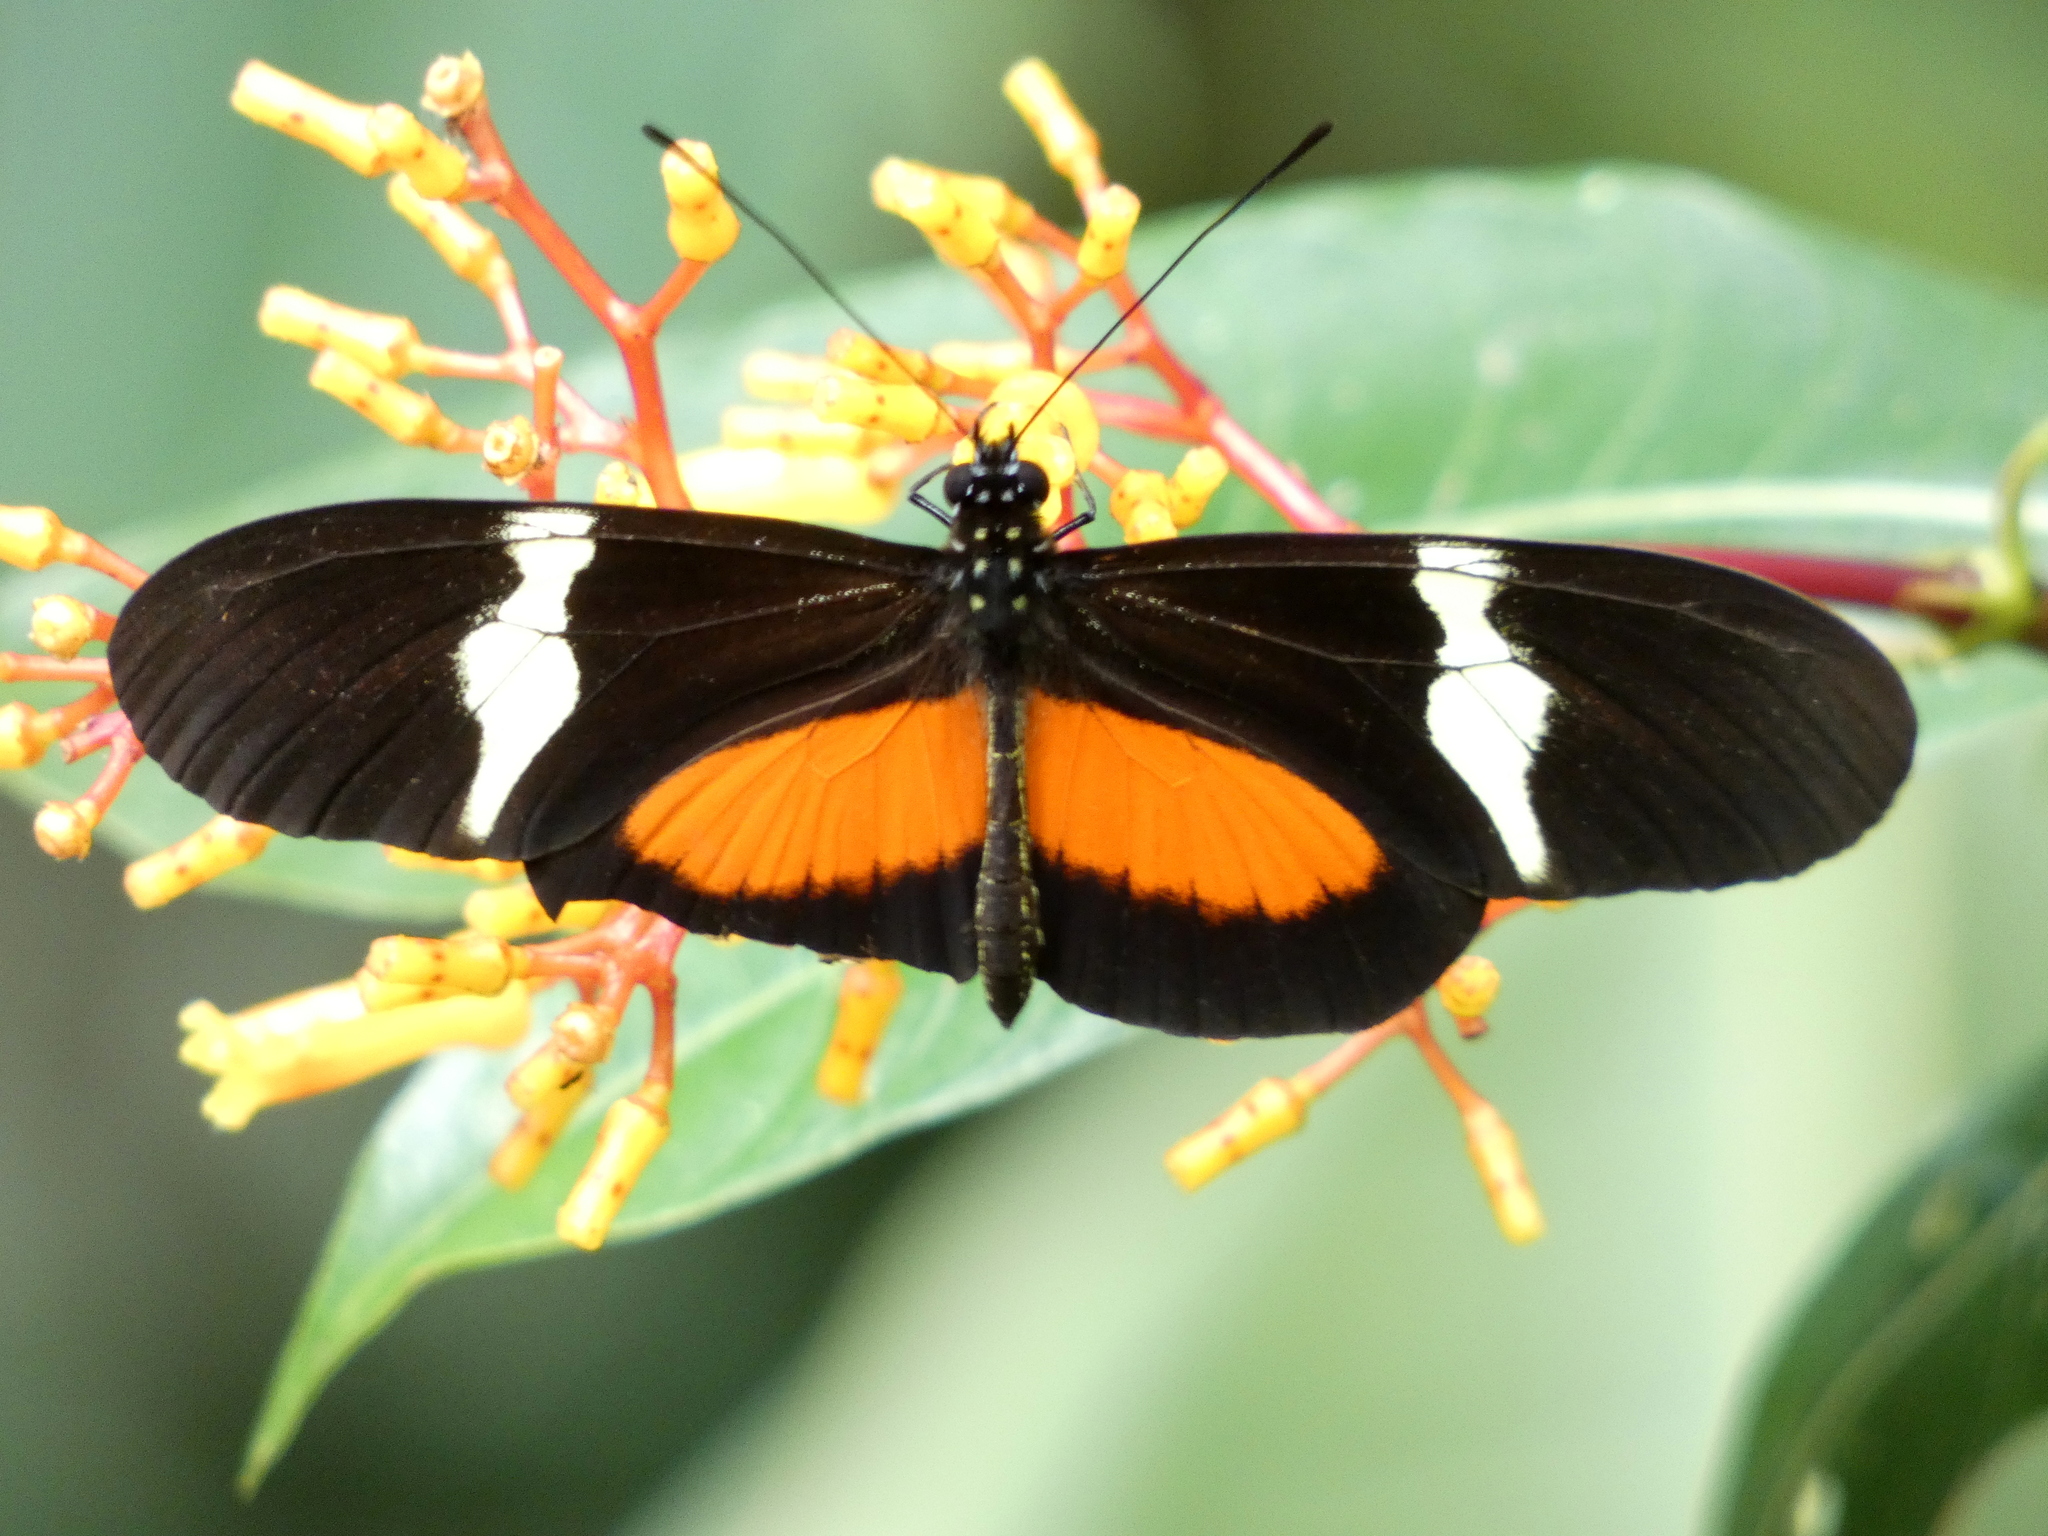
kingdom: Animalia
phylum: Arthropoda
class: Insecta
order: Lepidoptera
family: Nymphalidae
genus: Heliconius
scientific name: Heliconius clysonymus
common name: Clysonymus longwing
